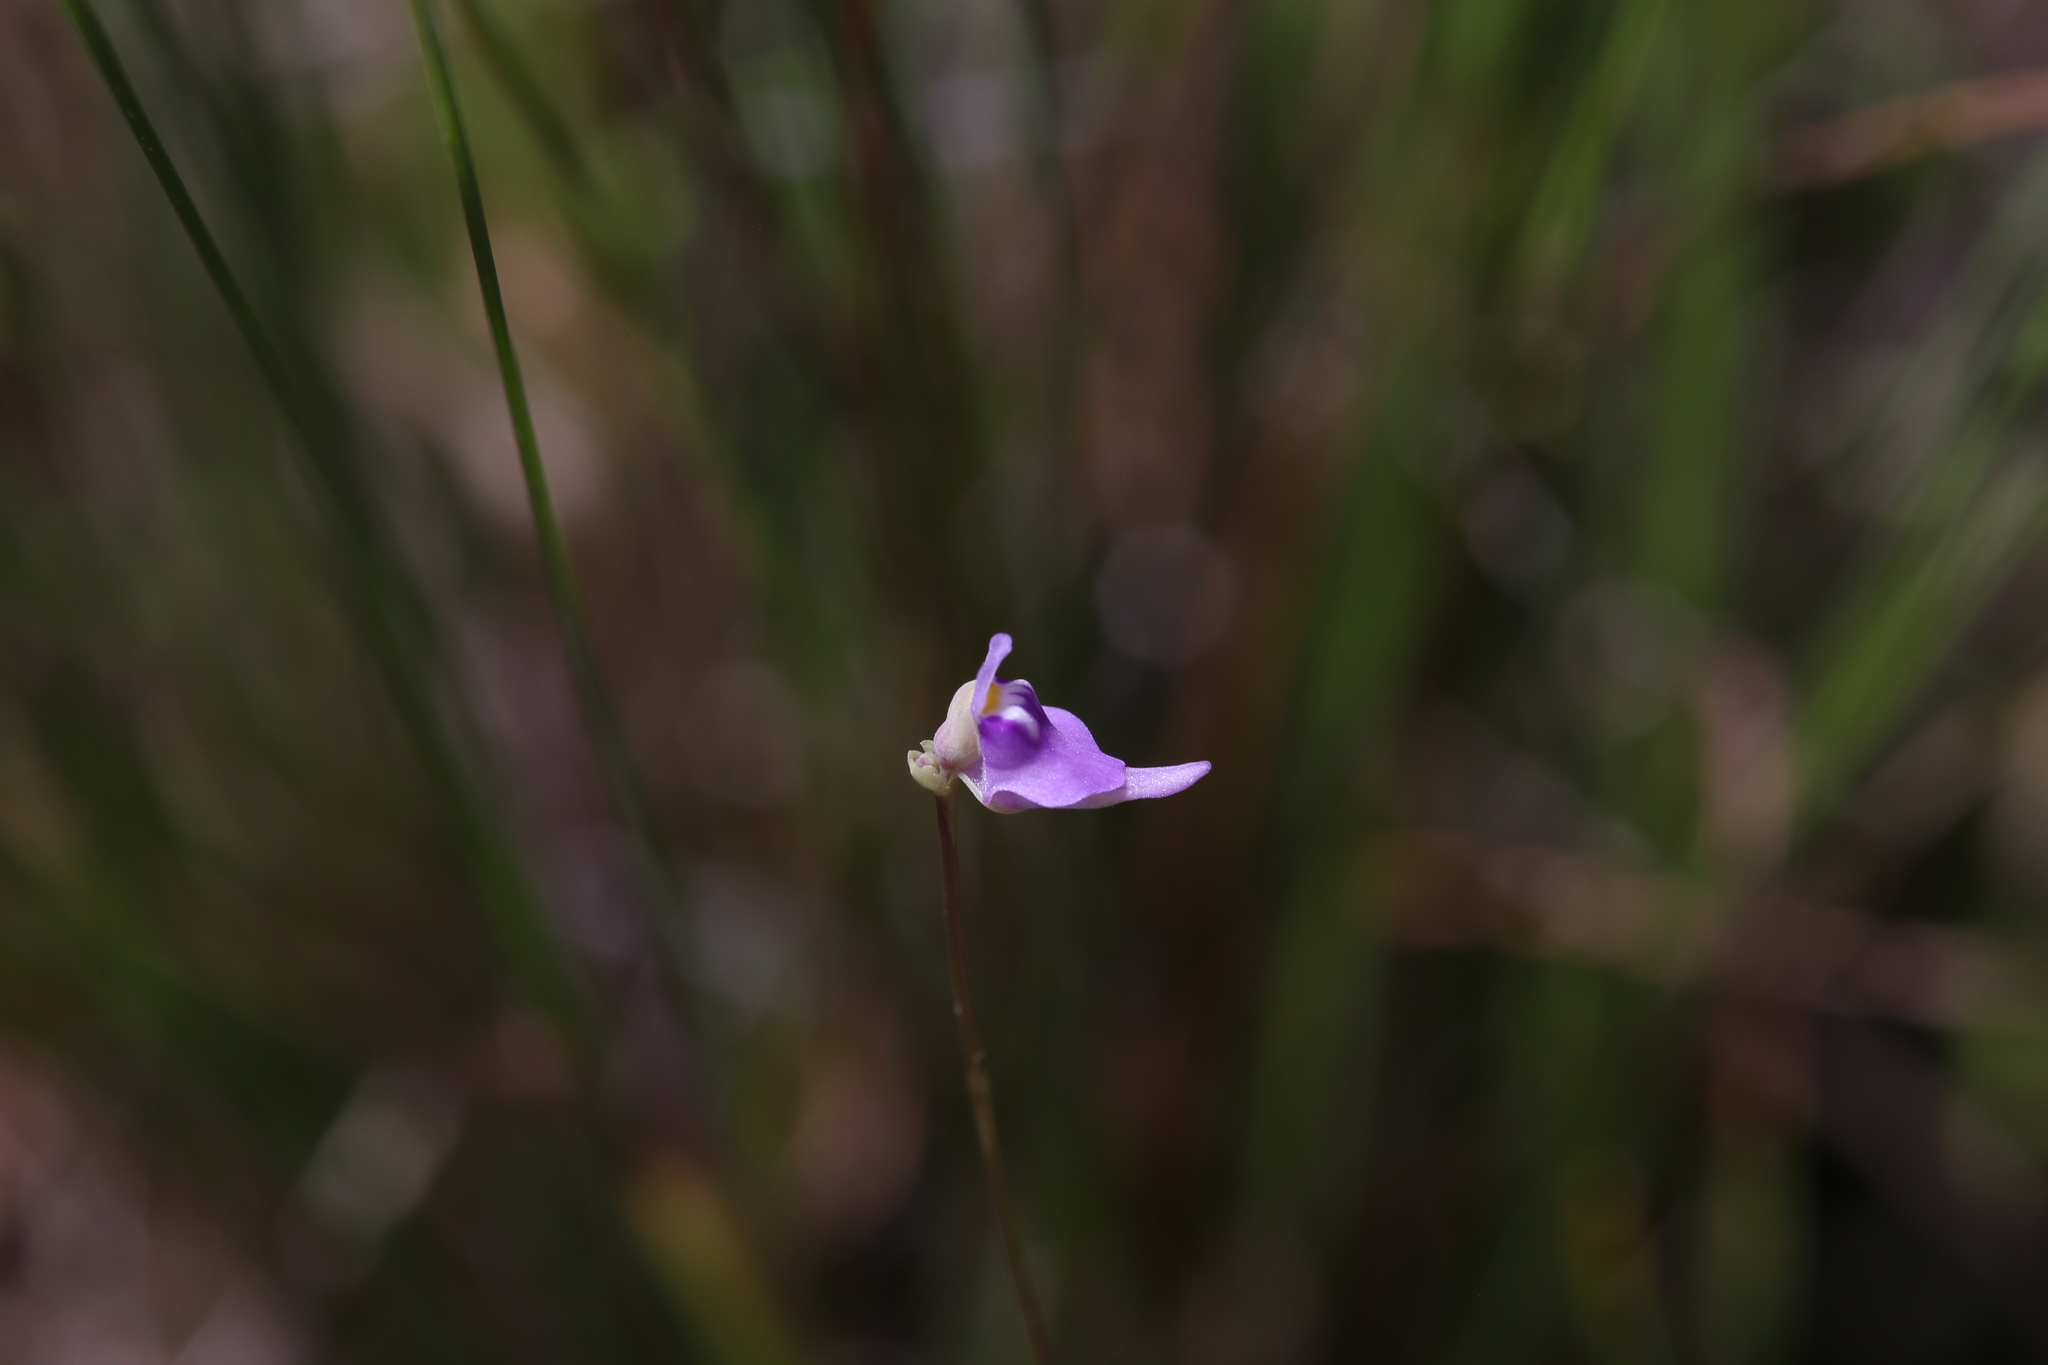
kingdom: Plantae
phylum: Tracheophyta
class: Magnoliopsida
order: Lamiales
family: Lentibulariaceae
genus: Utricularia
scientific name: Utricularia caerulea
